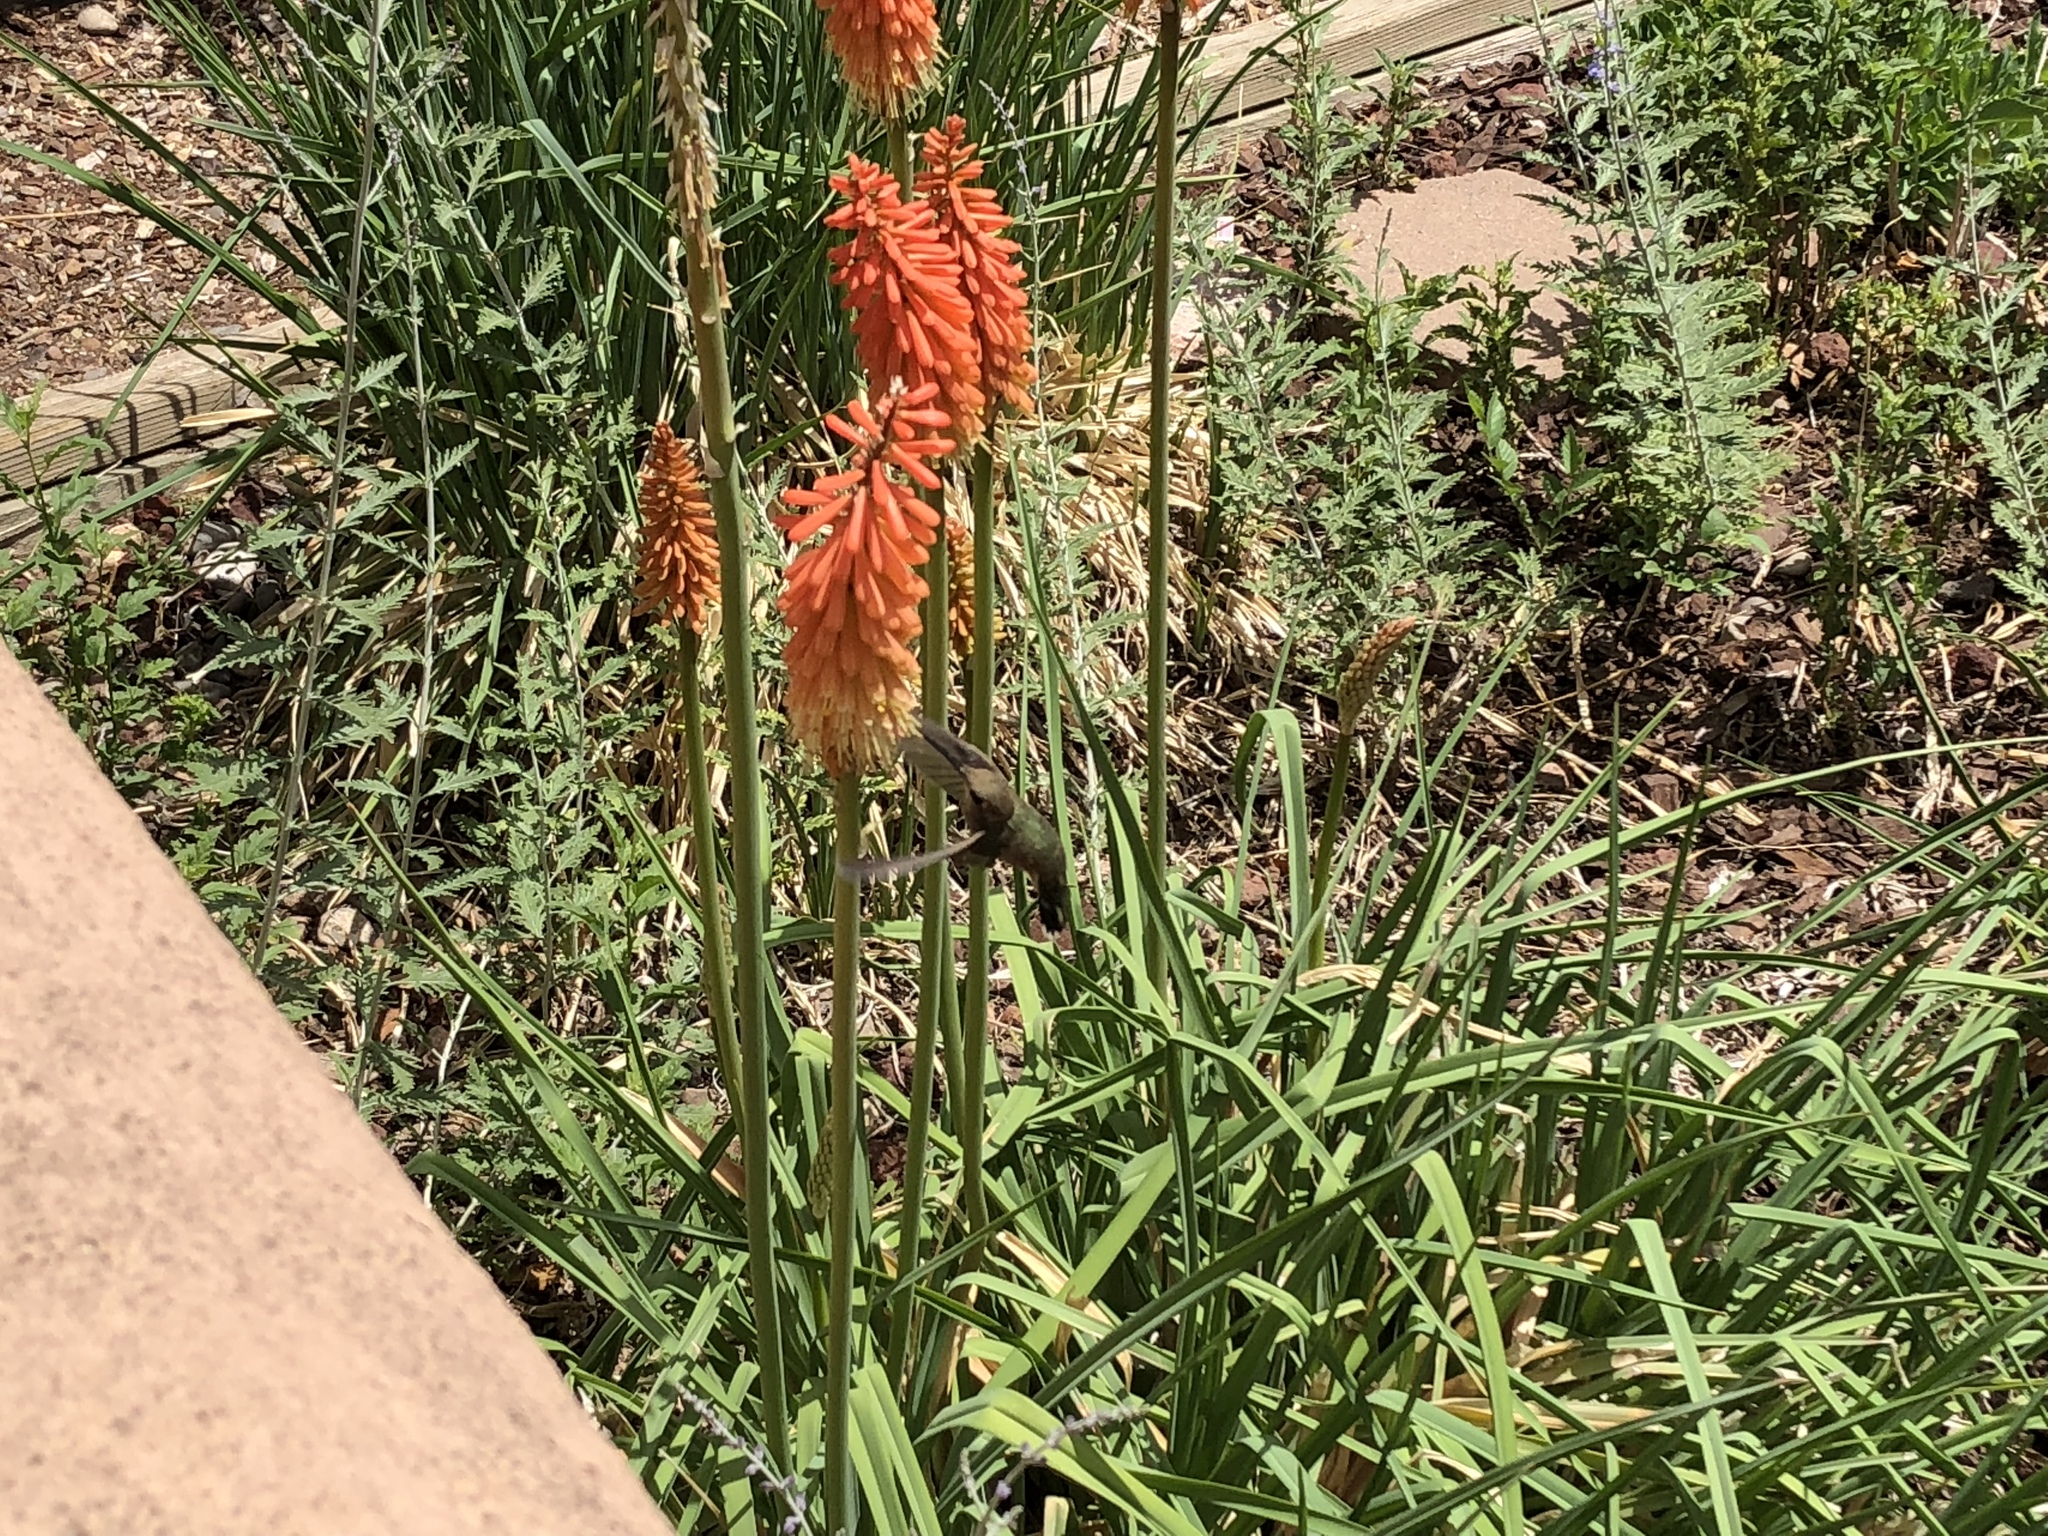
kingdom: Animalia
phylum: Chordata
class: Aves
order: Apodiformes
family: Trochilidae
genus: Archilochus
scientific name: Archilochus alexandri
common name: Black-chinned hummingbird
